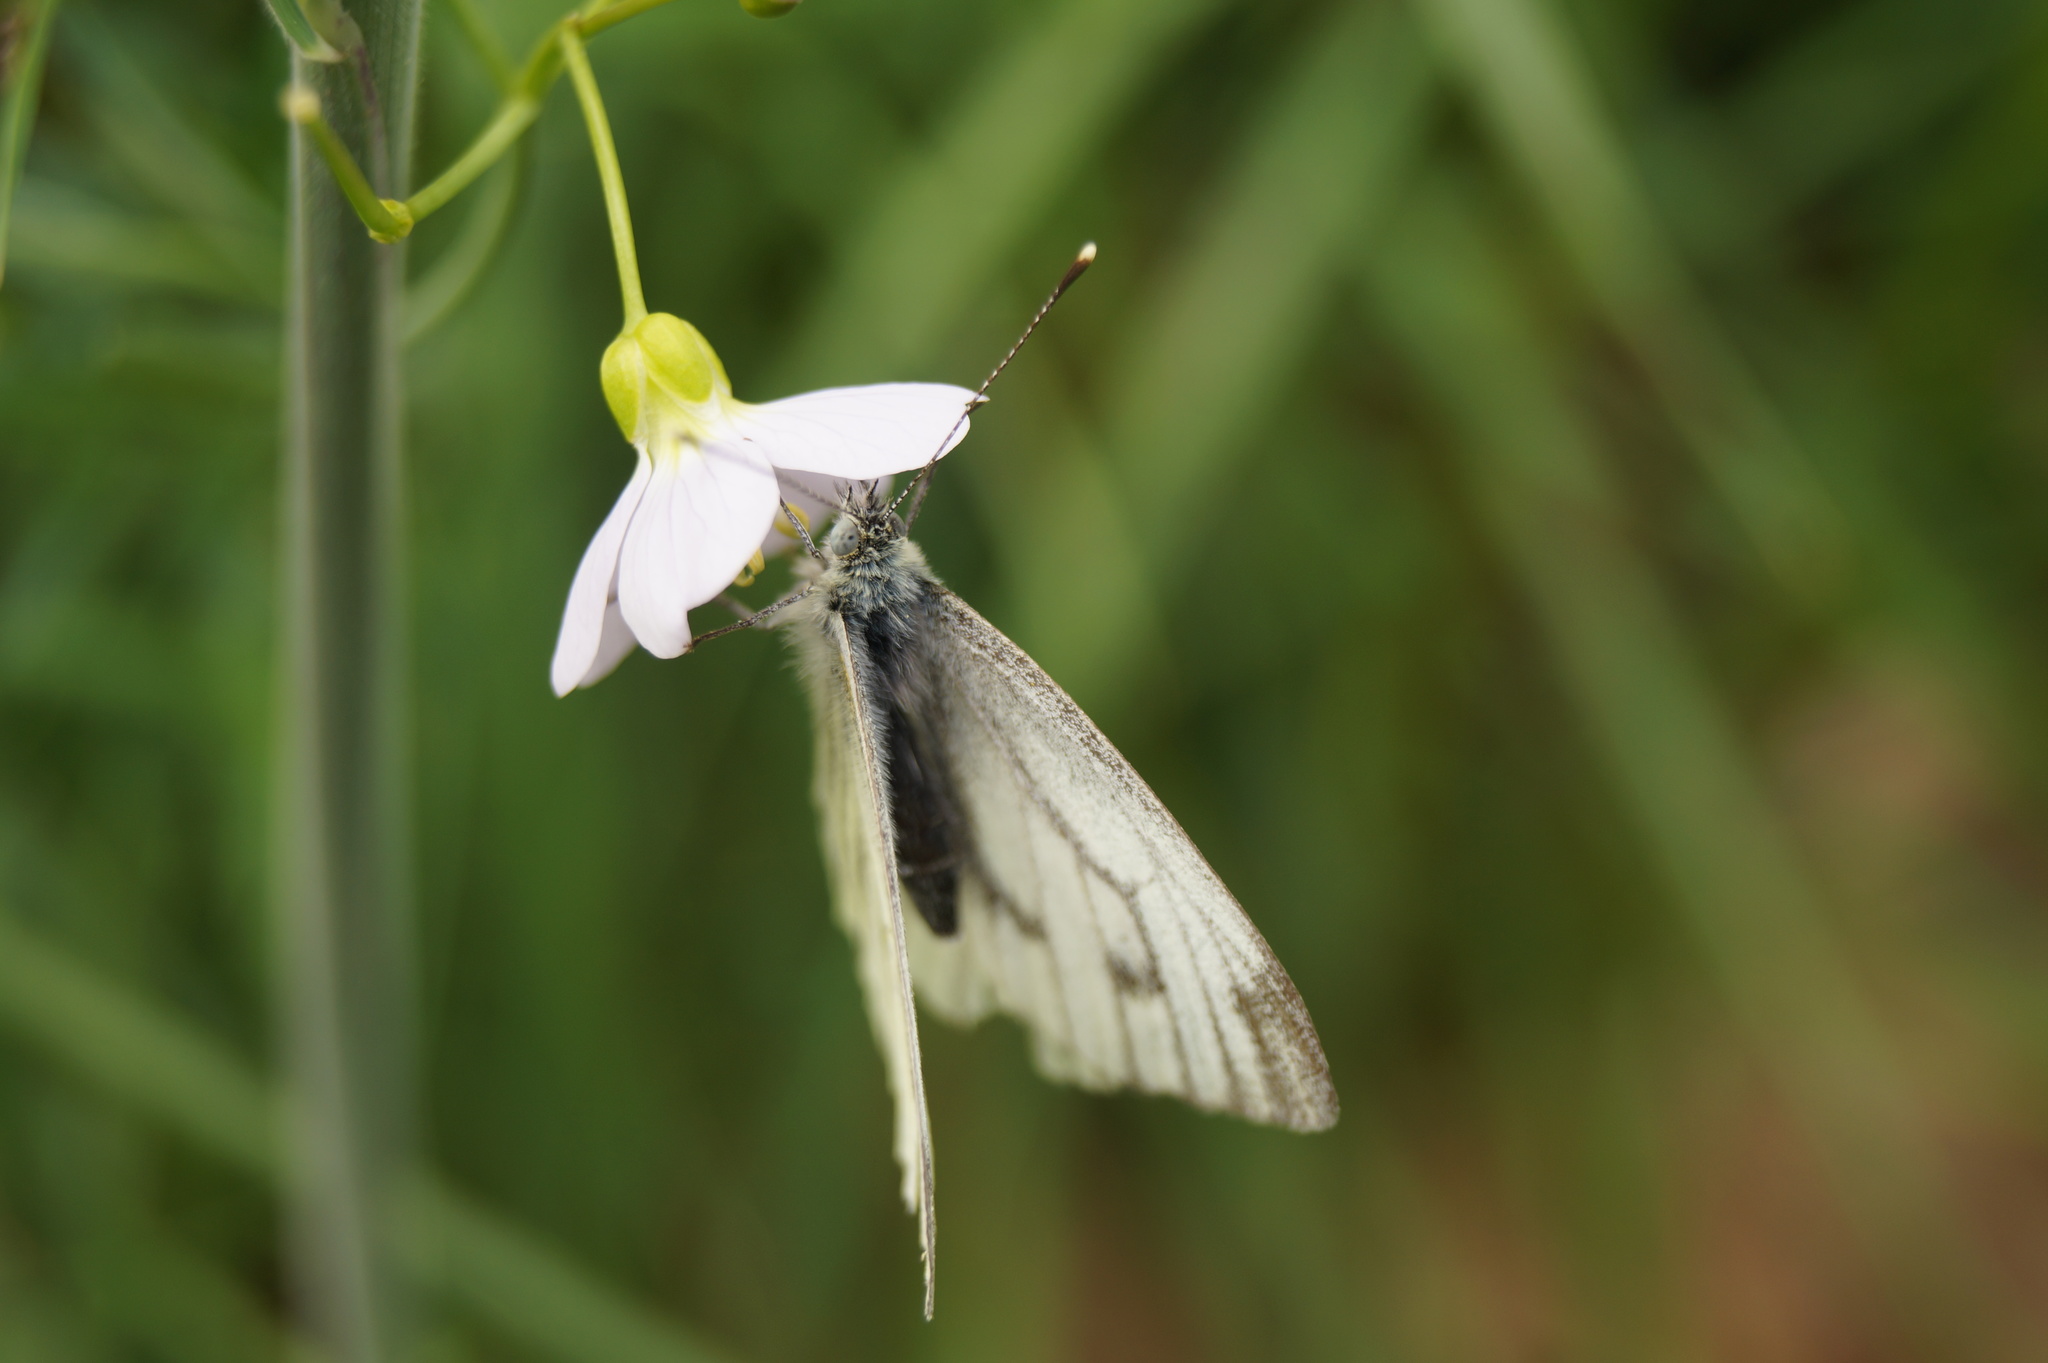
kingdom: Animalia
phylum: Arthropoda
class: Insecta
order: Lepidoptera
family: Pieridae
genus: Pieris
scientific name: Pieris napi
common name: Green-veined white
